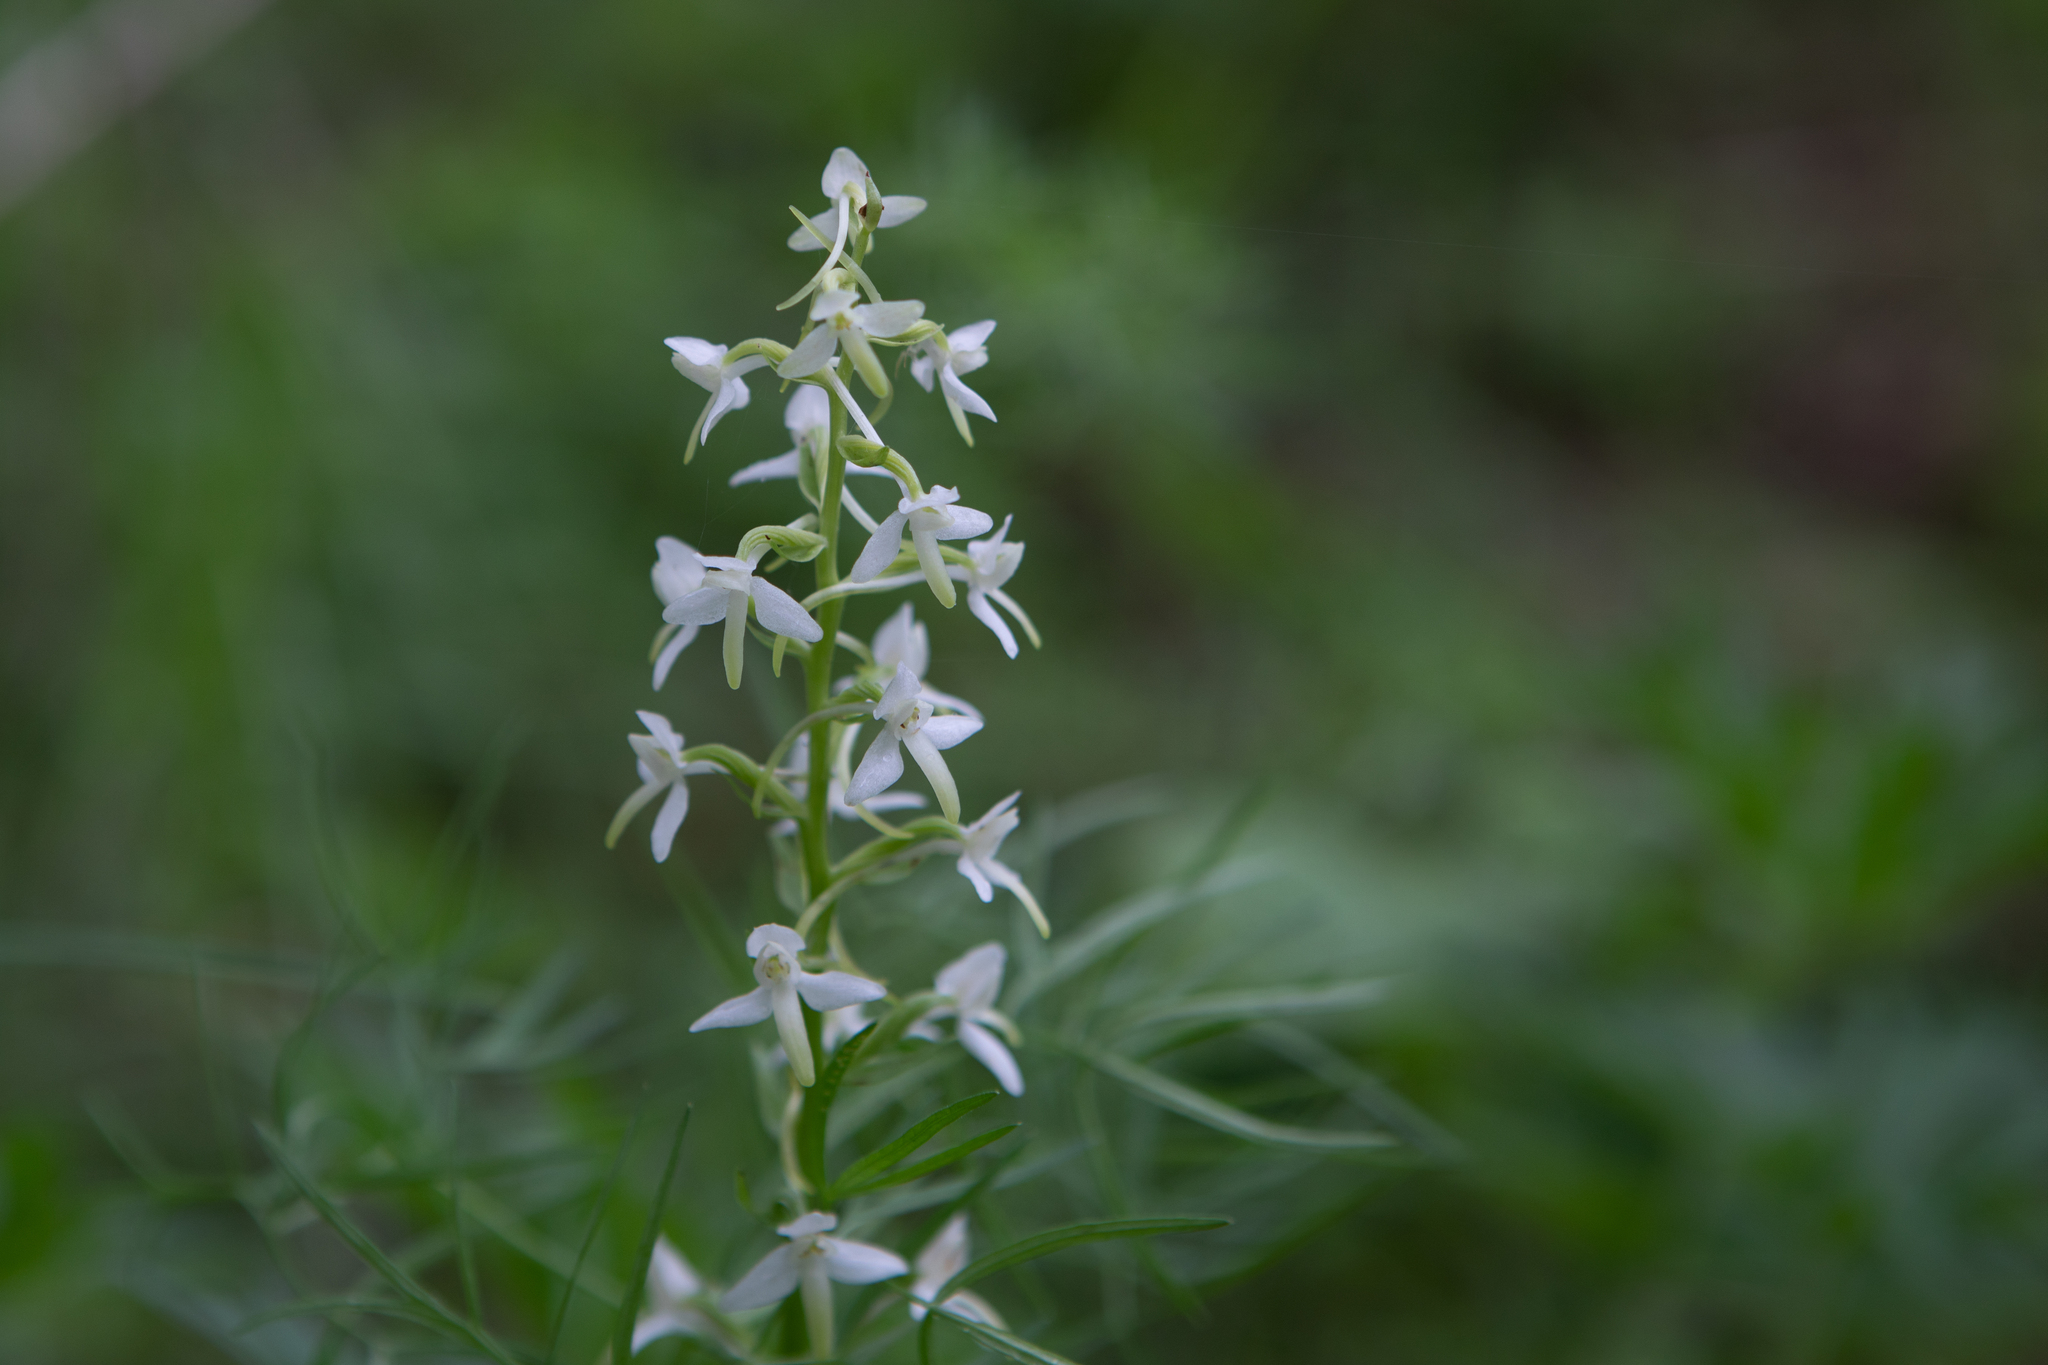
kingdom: Plantae
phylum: Tracheophyta
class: Liliopsida
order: Asparagales
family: Orchidaceae
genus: Platanthera
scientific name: Platanthera bifolia
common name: Lesser butterfly-orchid
